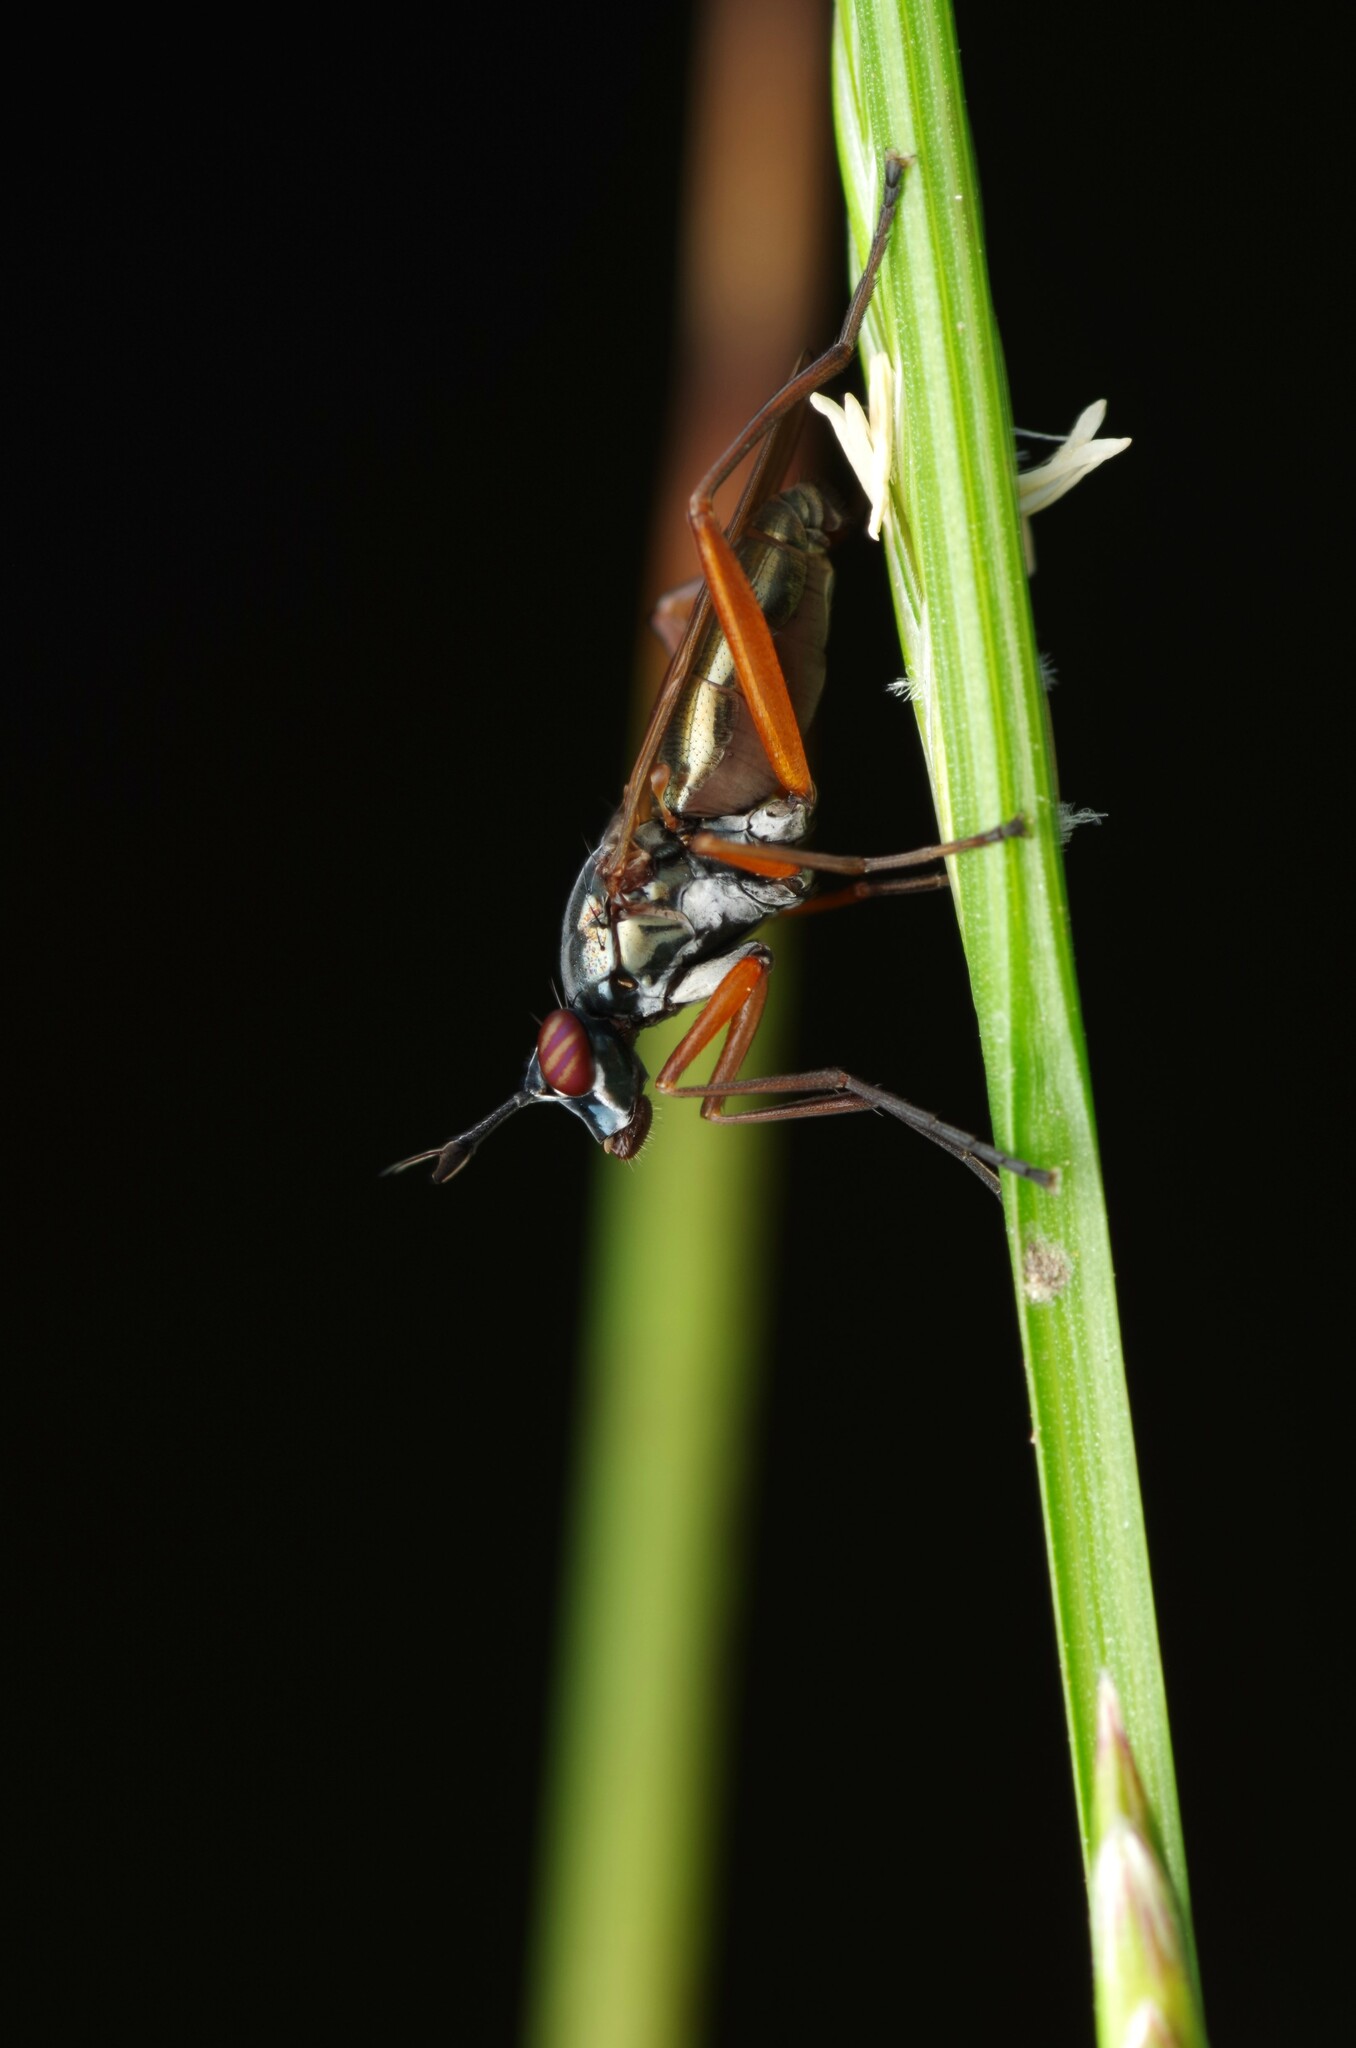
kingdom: Animalia
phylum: Arthropoda
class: Insecta
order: Diptera
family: Sciomyzidae
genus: Sepedon
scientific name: Sepedon sphegea
